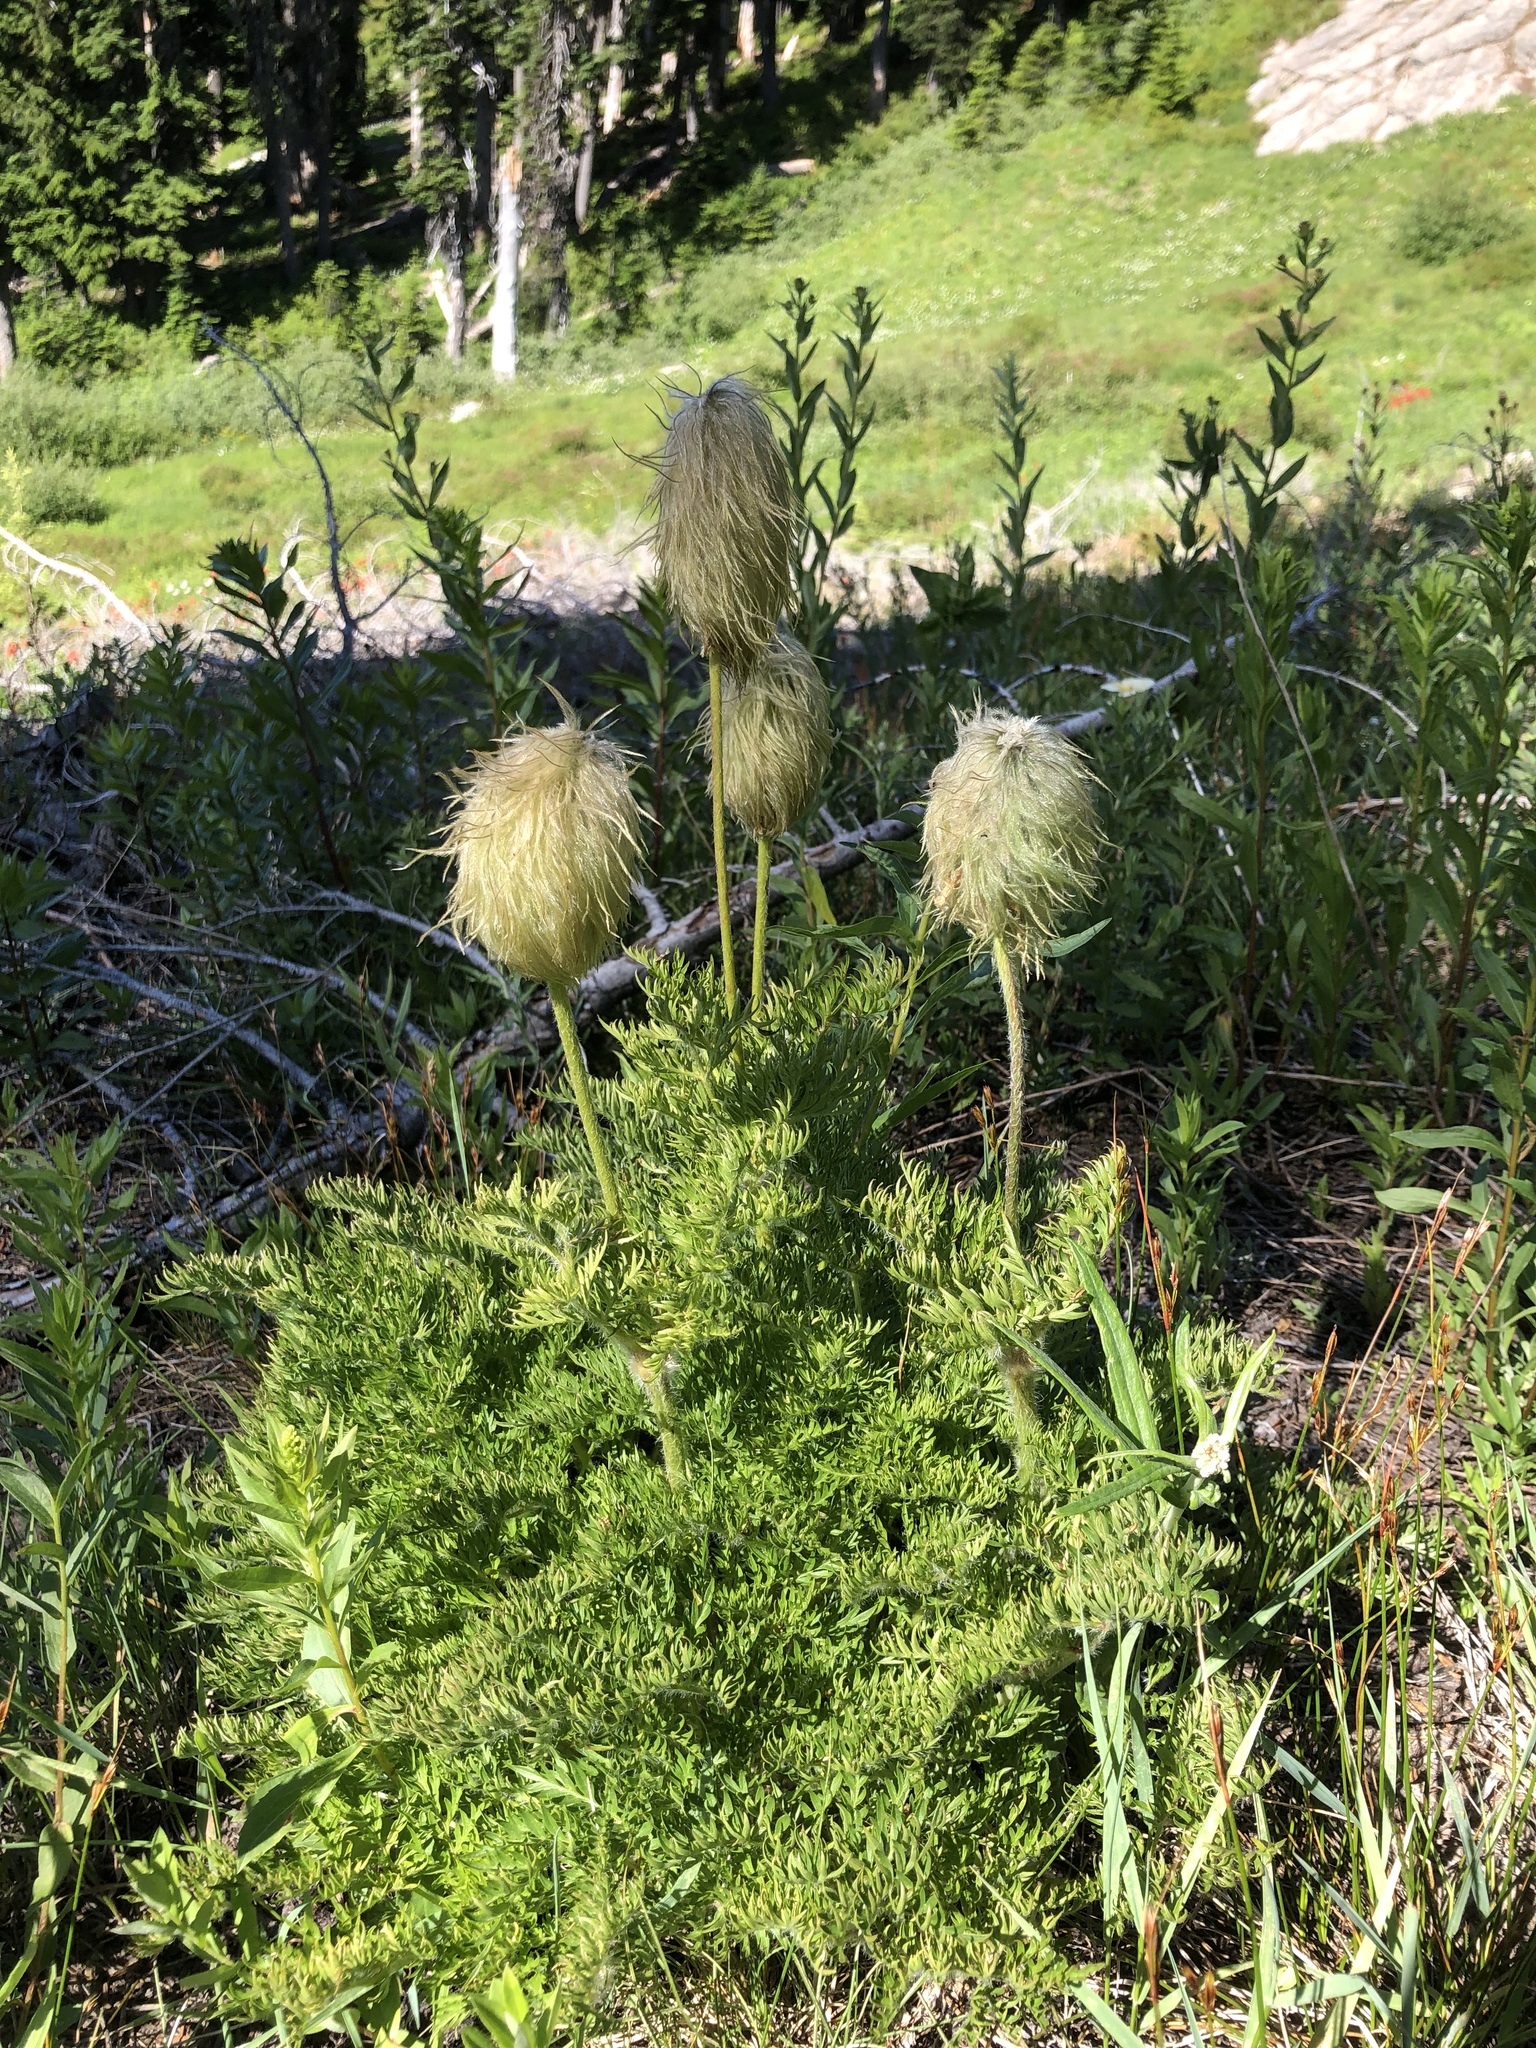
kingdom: Plantae
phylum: Tracheophyta
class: Magnoliopsida
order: Ranunculales
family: Ranunculaceae
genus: Pulsatilla
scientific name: Pulsatilla occidentalis
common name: Mountain pasqueflower
